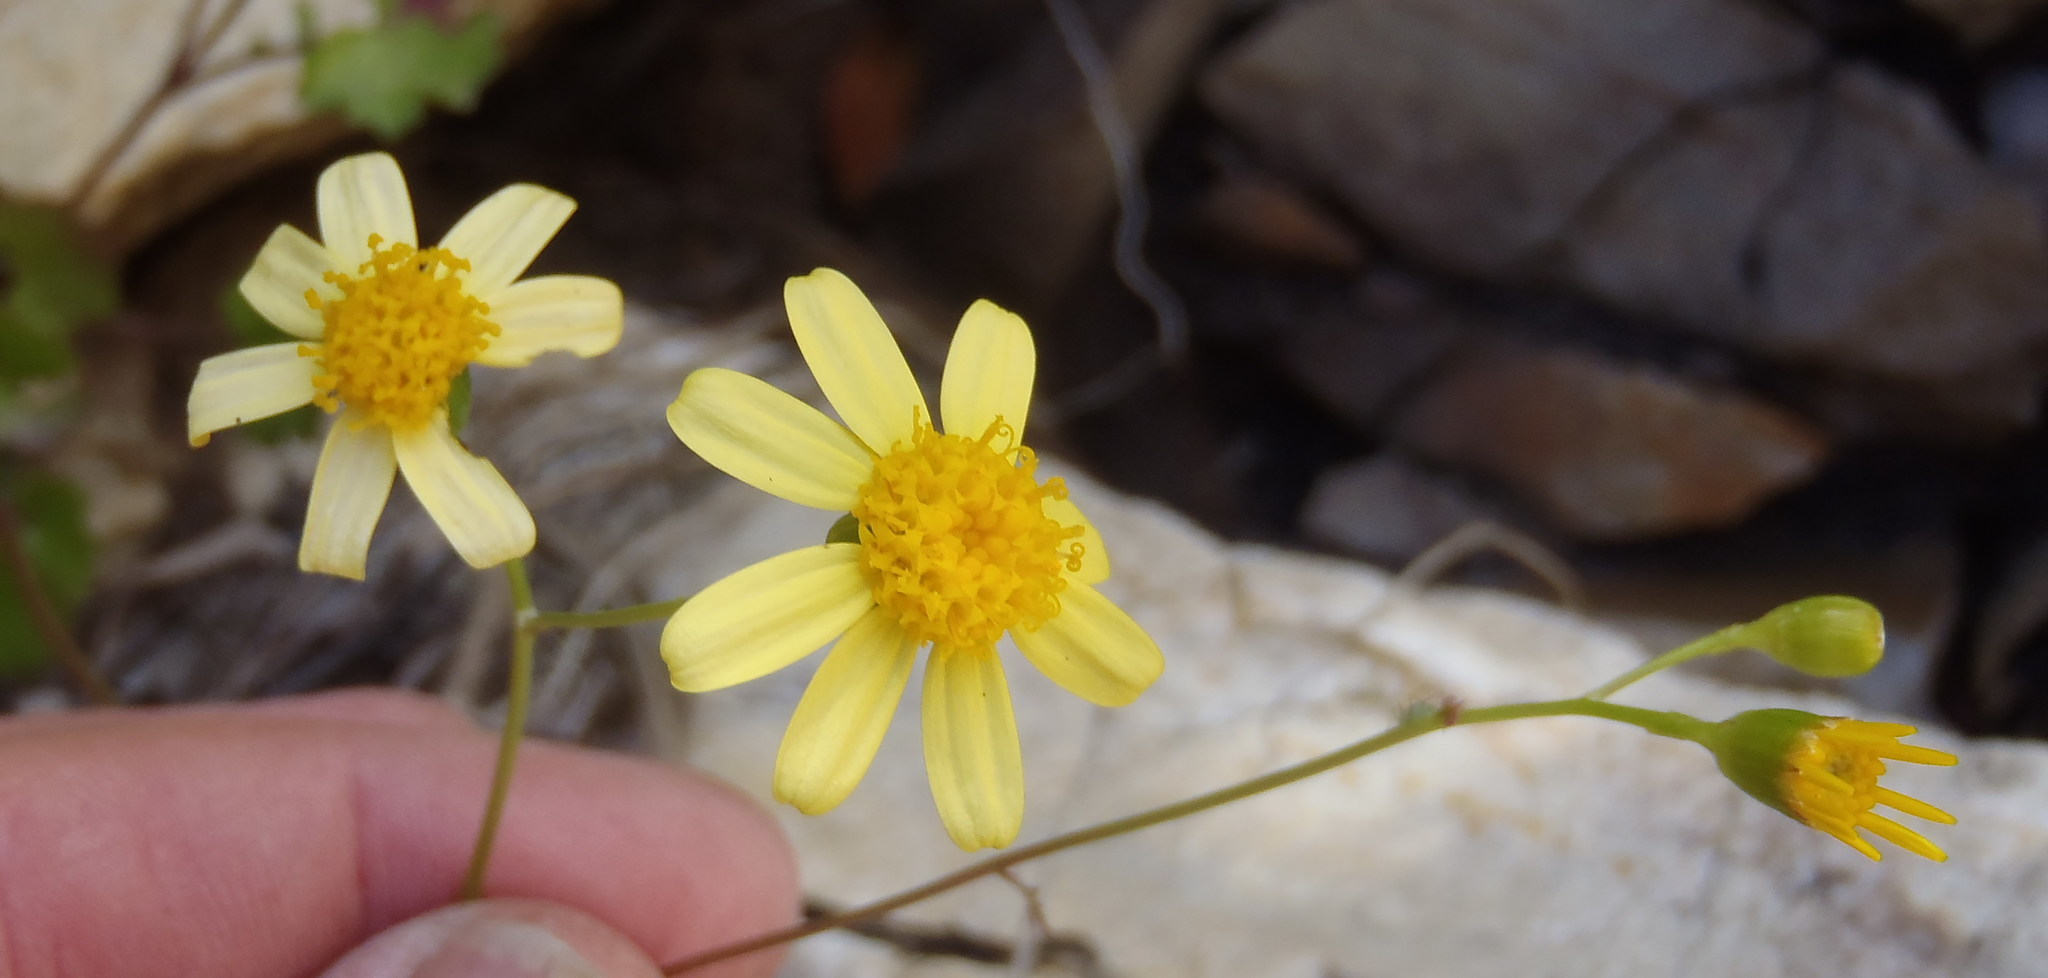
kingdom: Plantae
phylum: Tracheophyta
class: Magnoliopsida
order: Asterales
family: Asteraceae
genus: Cineraria
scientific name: Cineraria lobata
